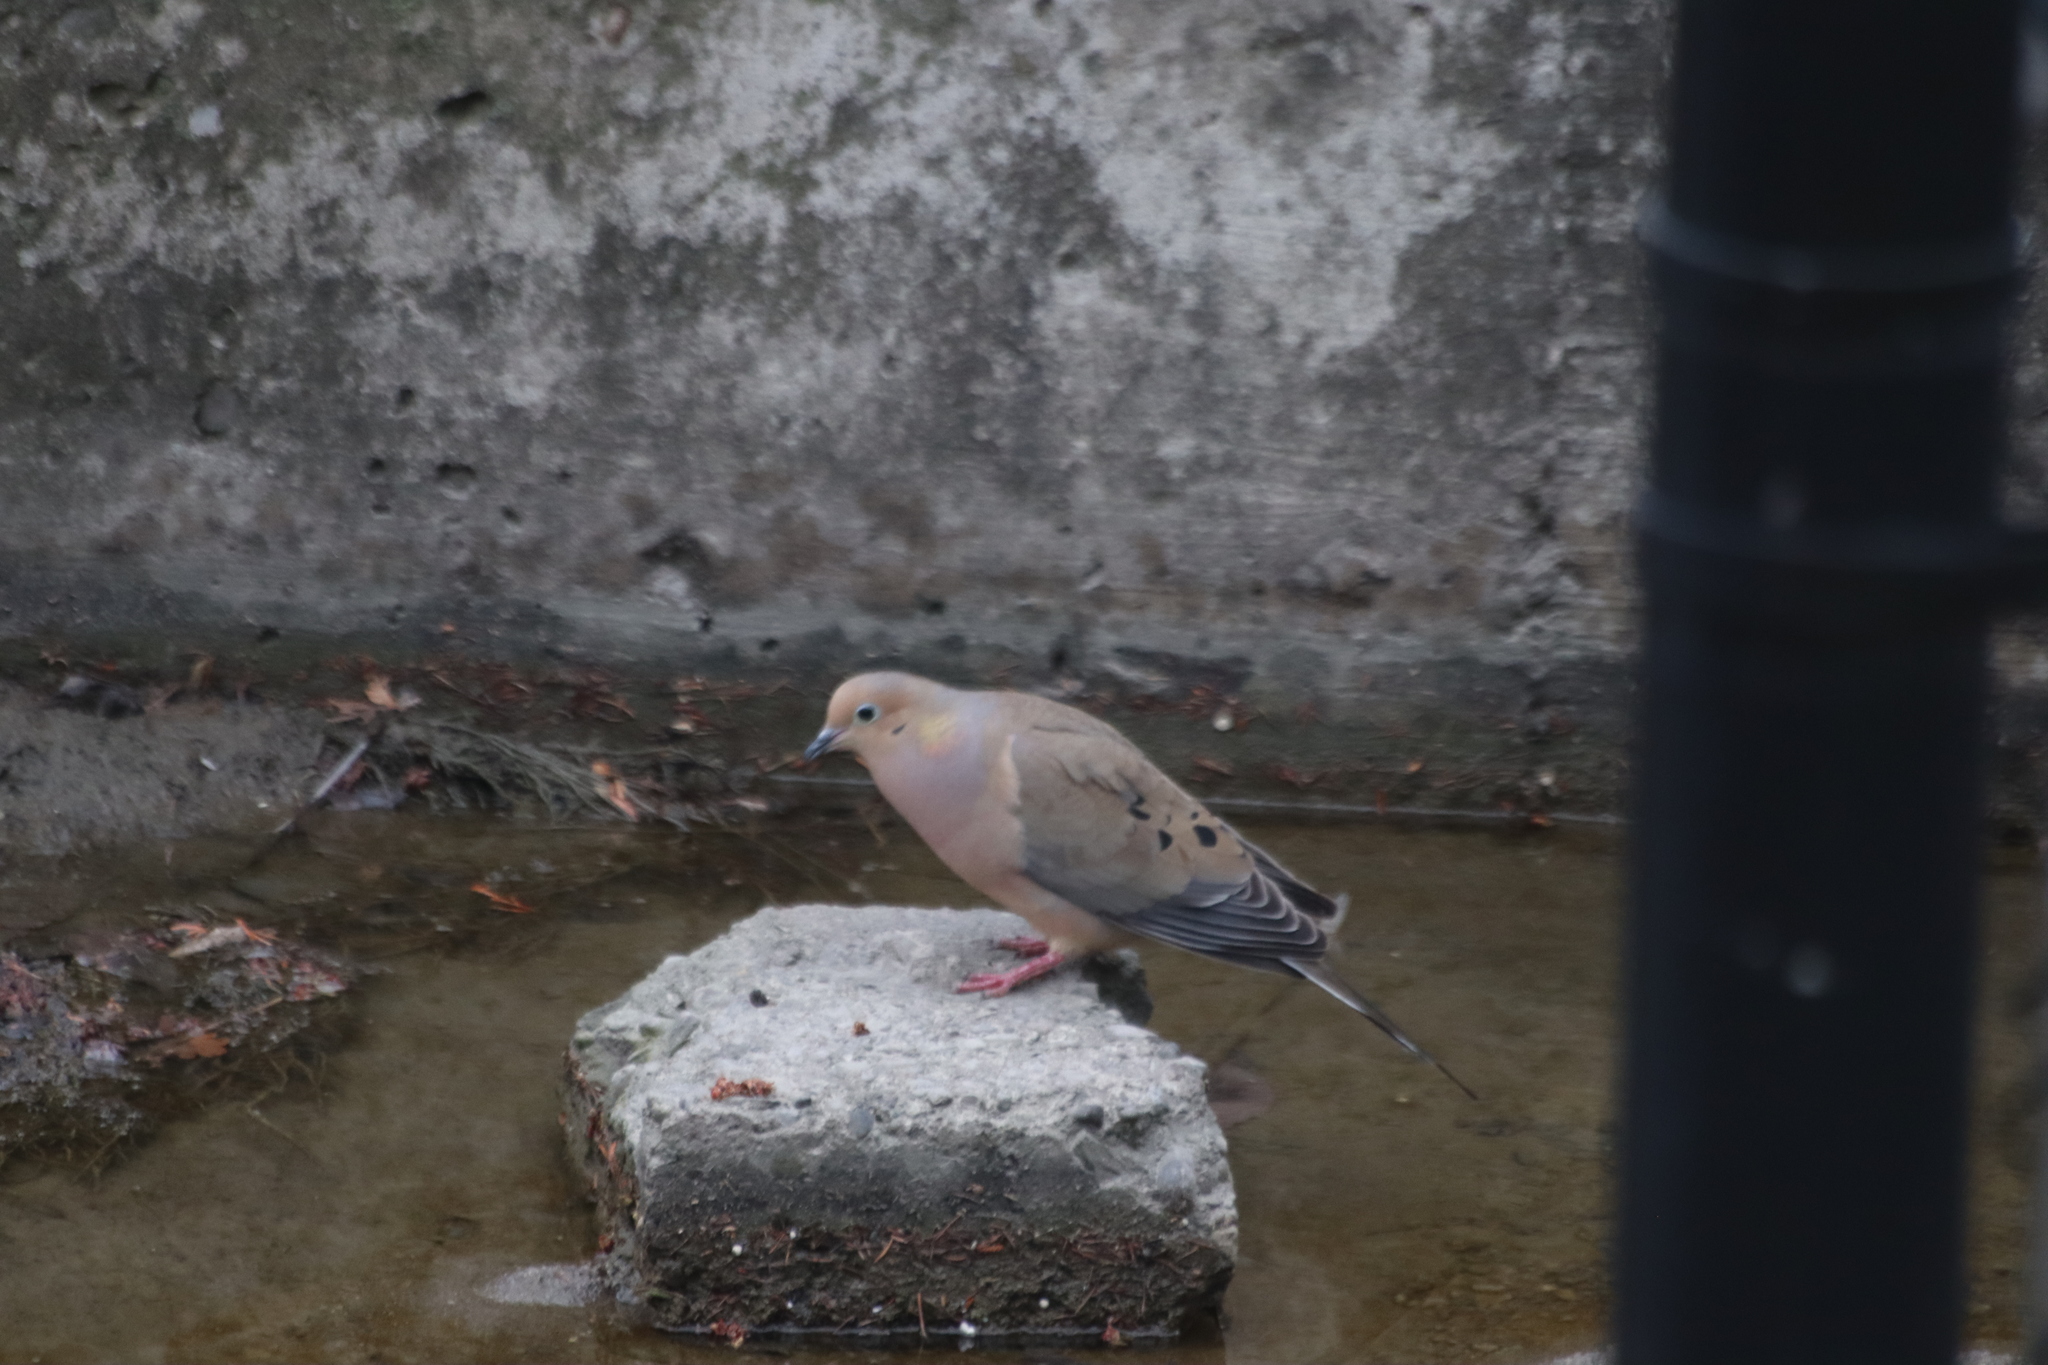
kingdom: Animalia
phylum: Chordata
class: Aves
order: Columbiformes
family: Columbidae
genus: Zenaida
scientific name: Zenaida macroura
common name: Mourning dove
